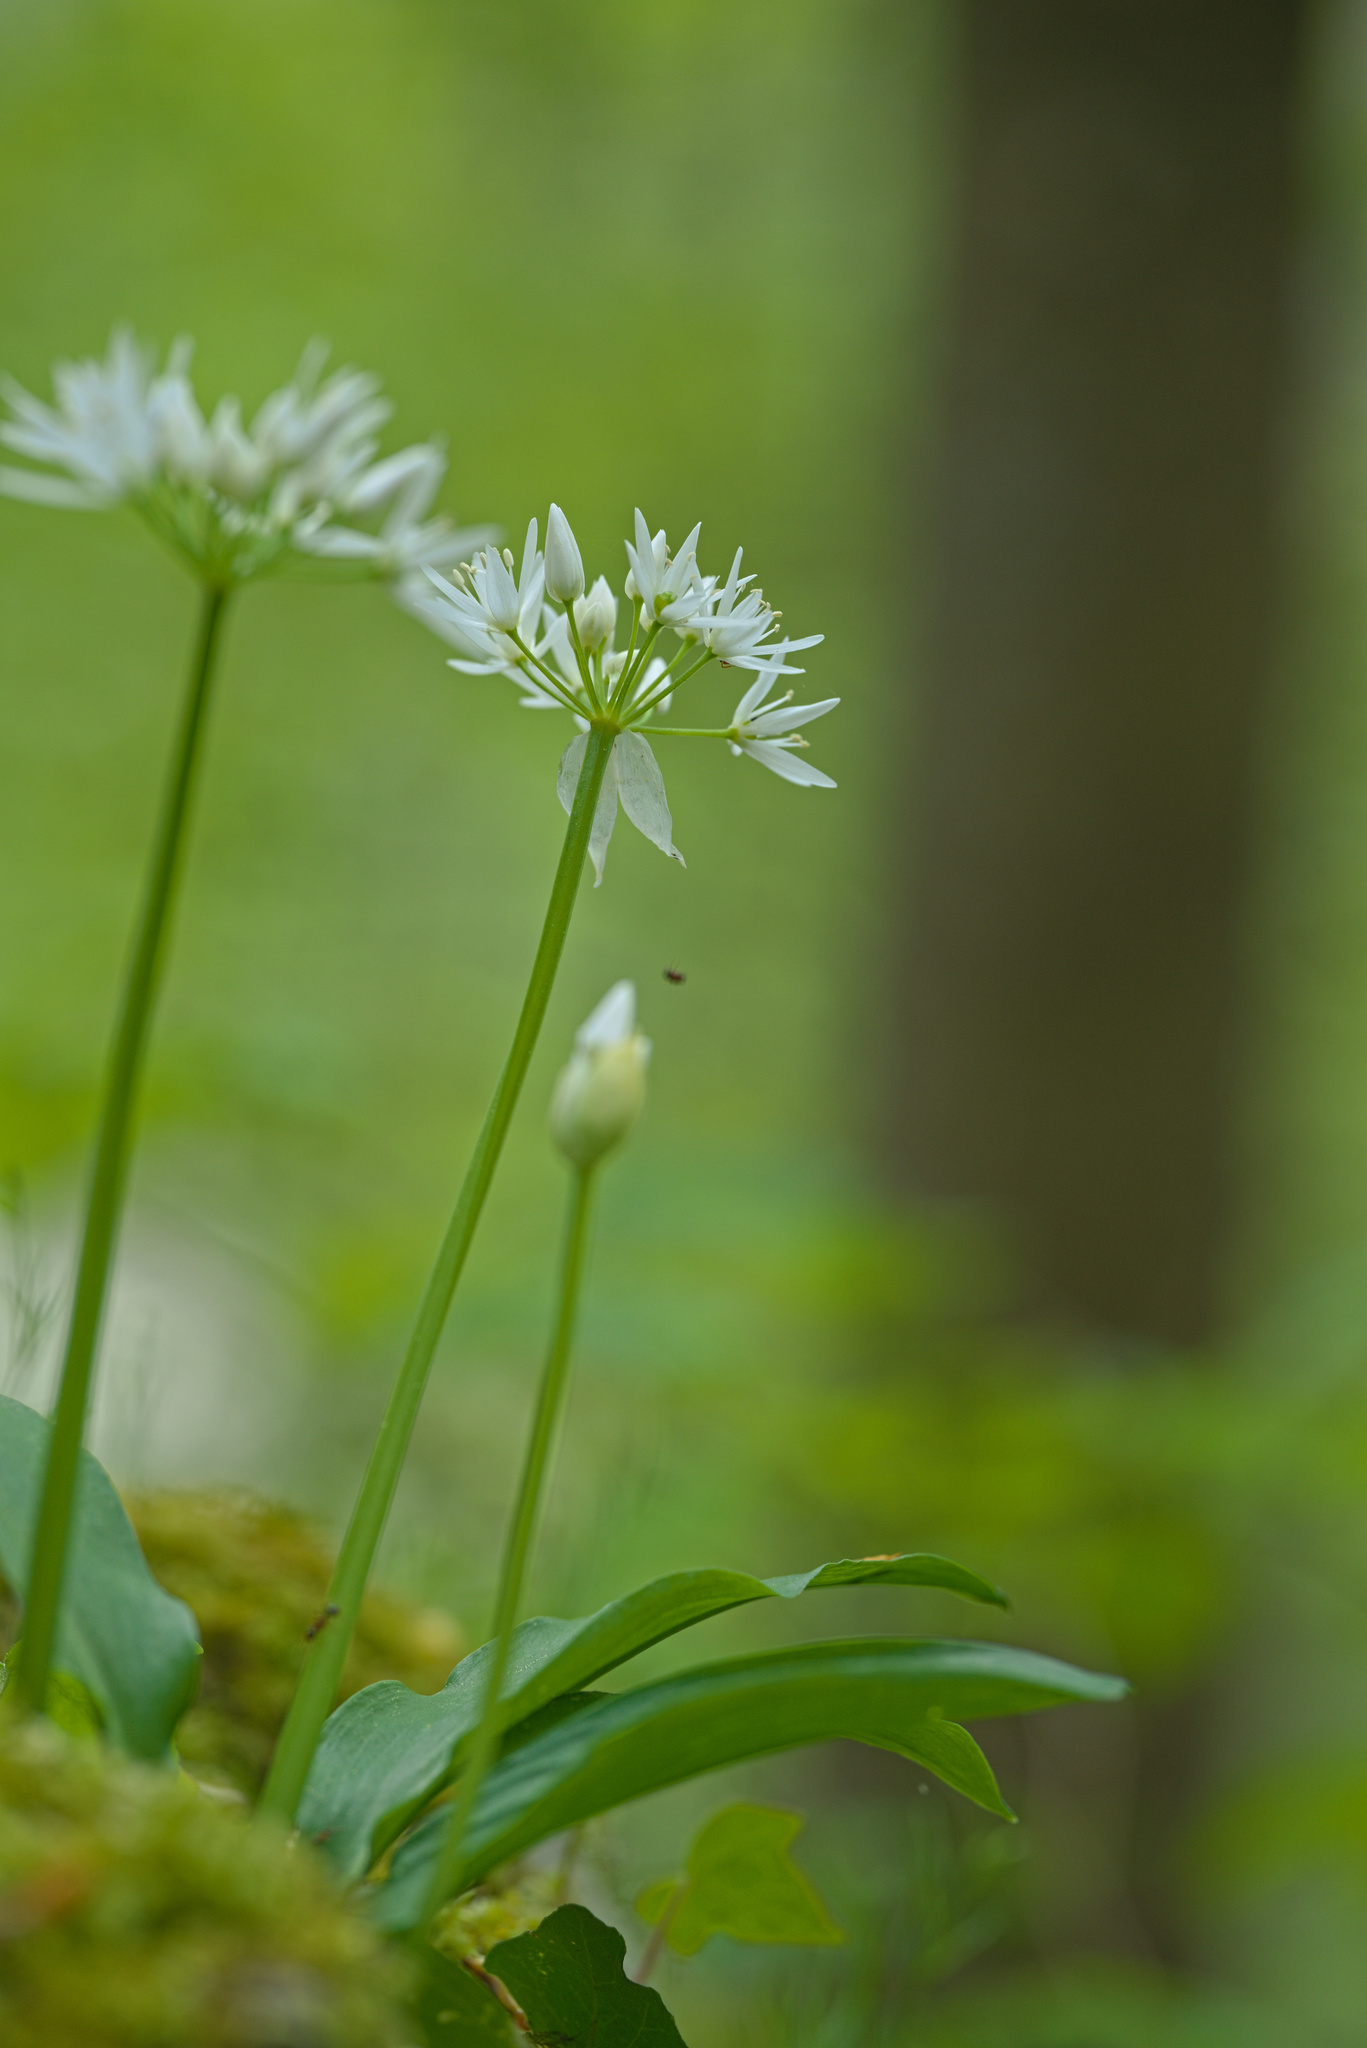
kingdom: Plantae
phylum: Tracheophyta
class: Liliopsida
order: Asparagales
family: Amaryllidaceae
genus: Allium
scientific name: Allium ursinum
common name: Ramsons
